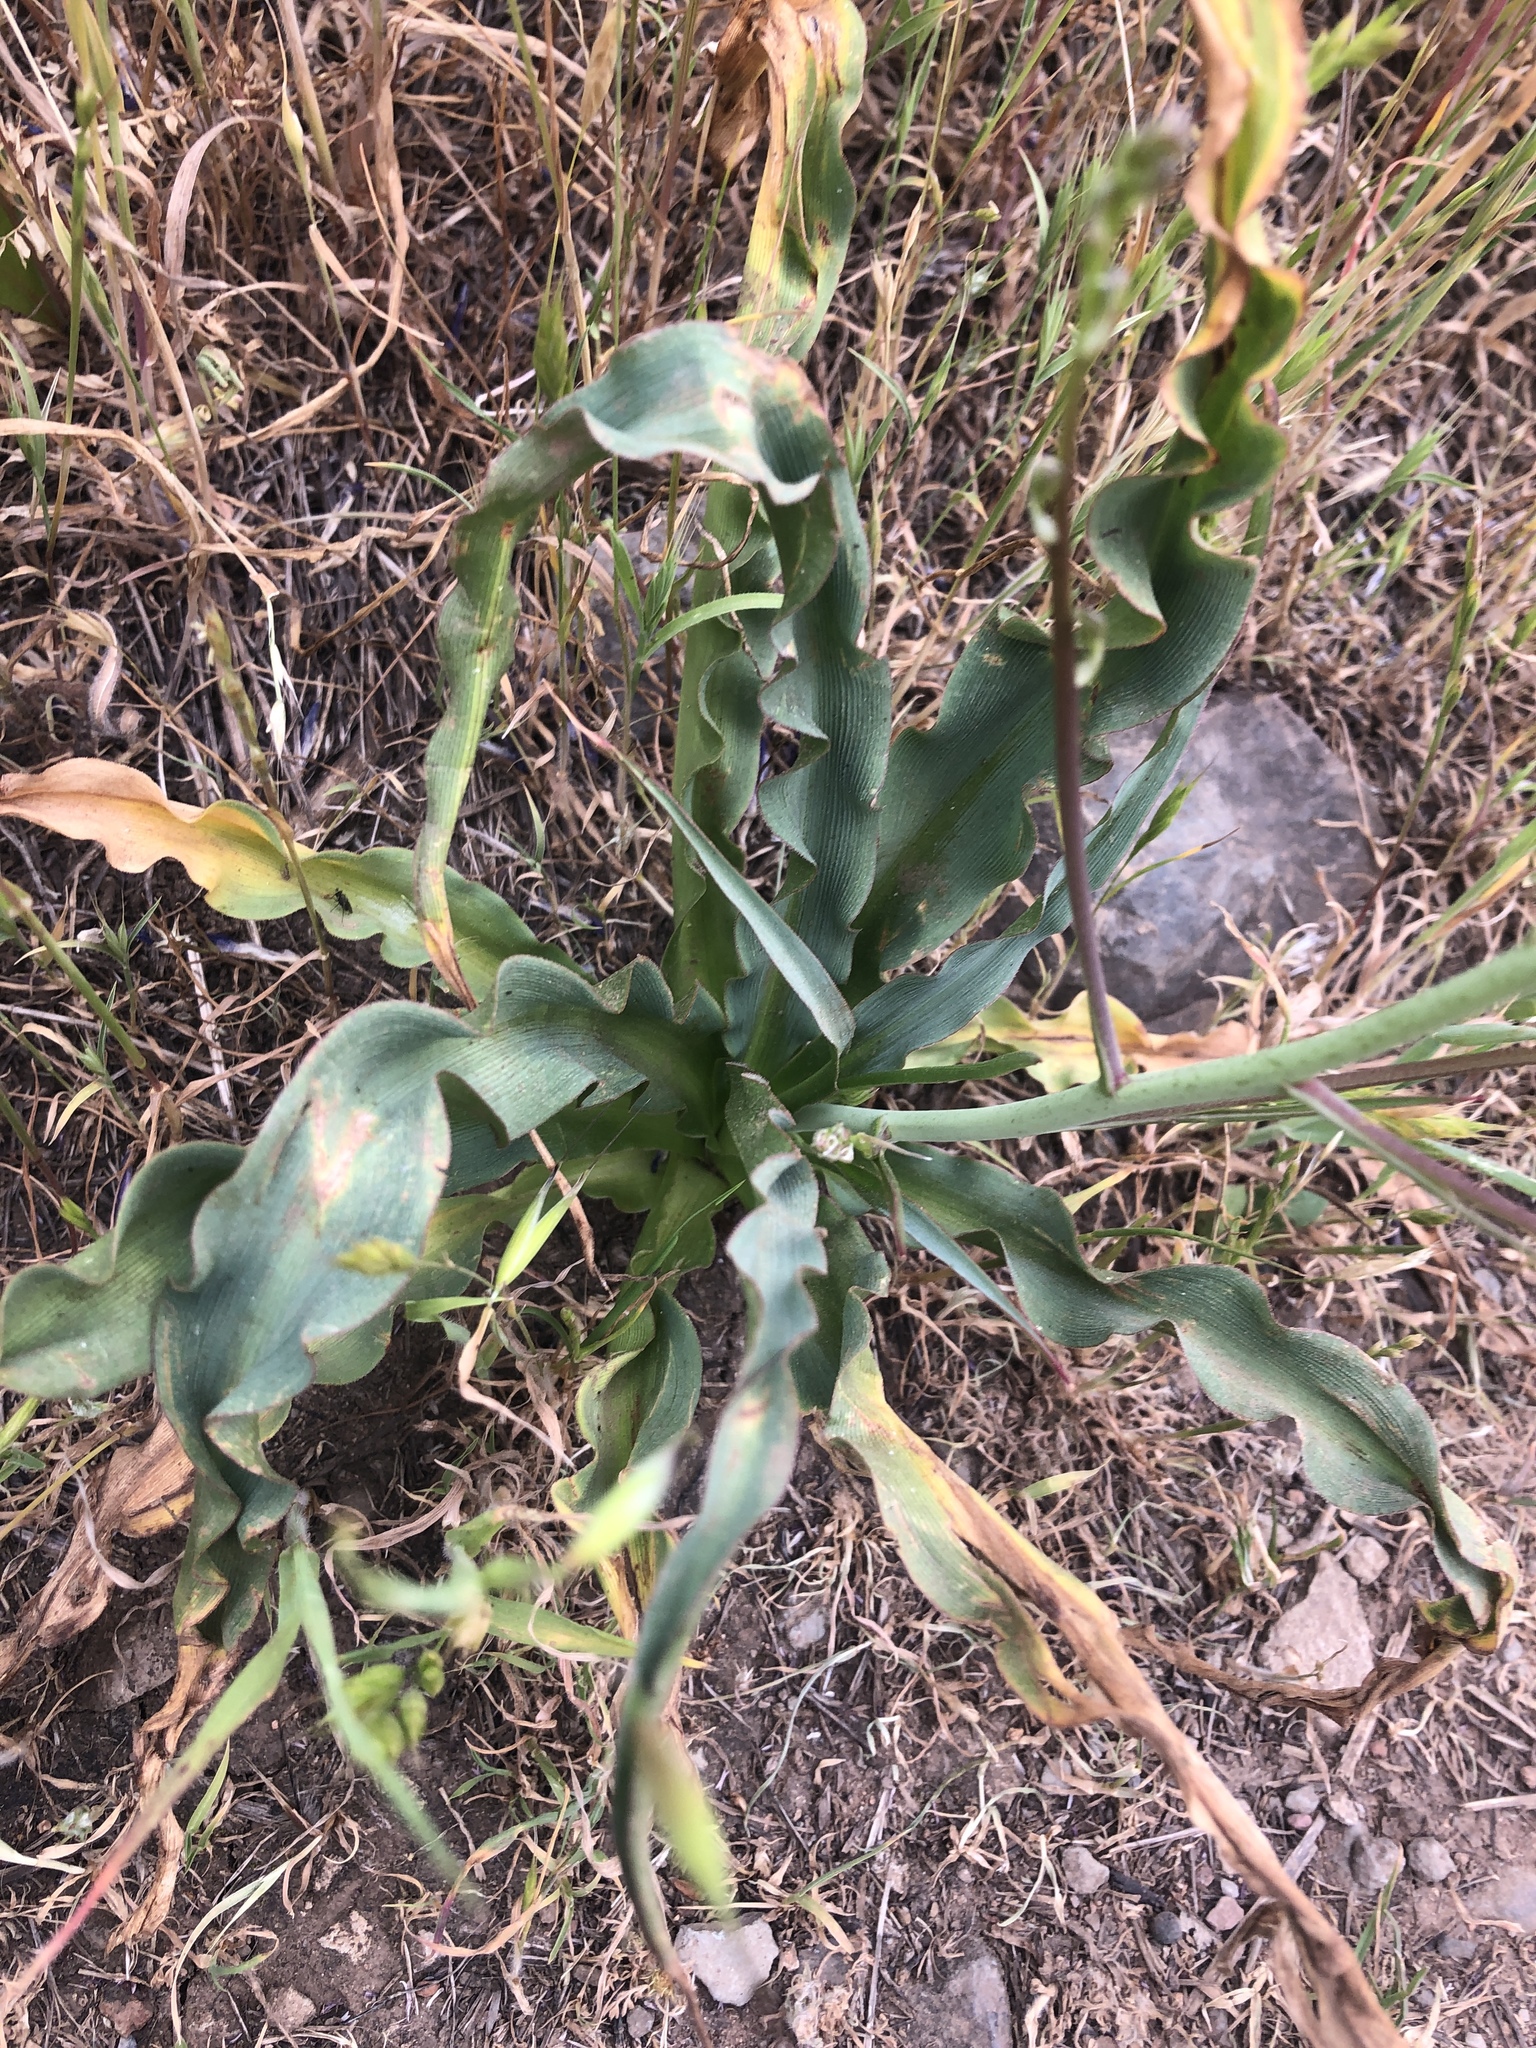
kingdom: Plantae
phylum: Tracheophyta
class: Liliopsida
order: Asparagales
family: Asparagaceae
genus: Chlorogalum
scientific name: Chlorogalum pomeridianum
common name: Amole
